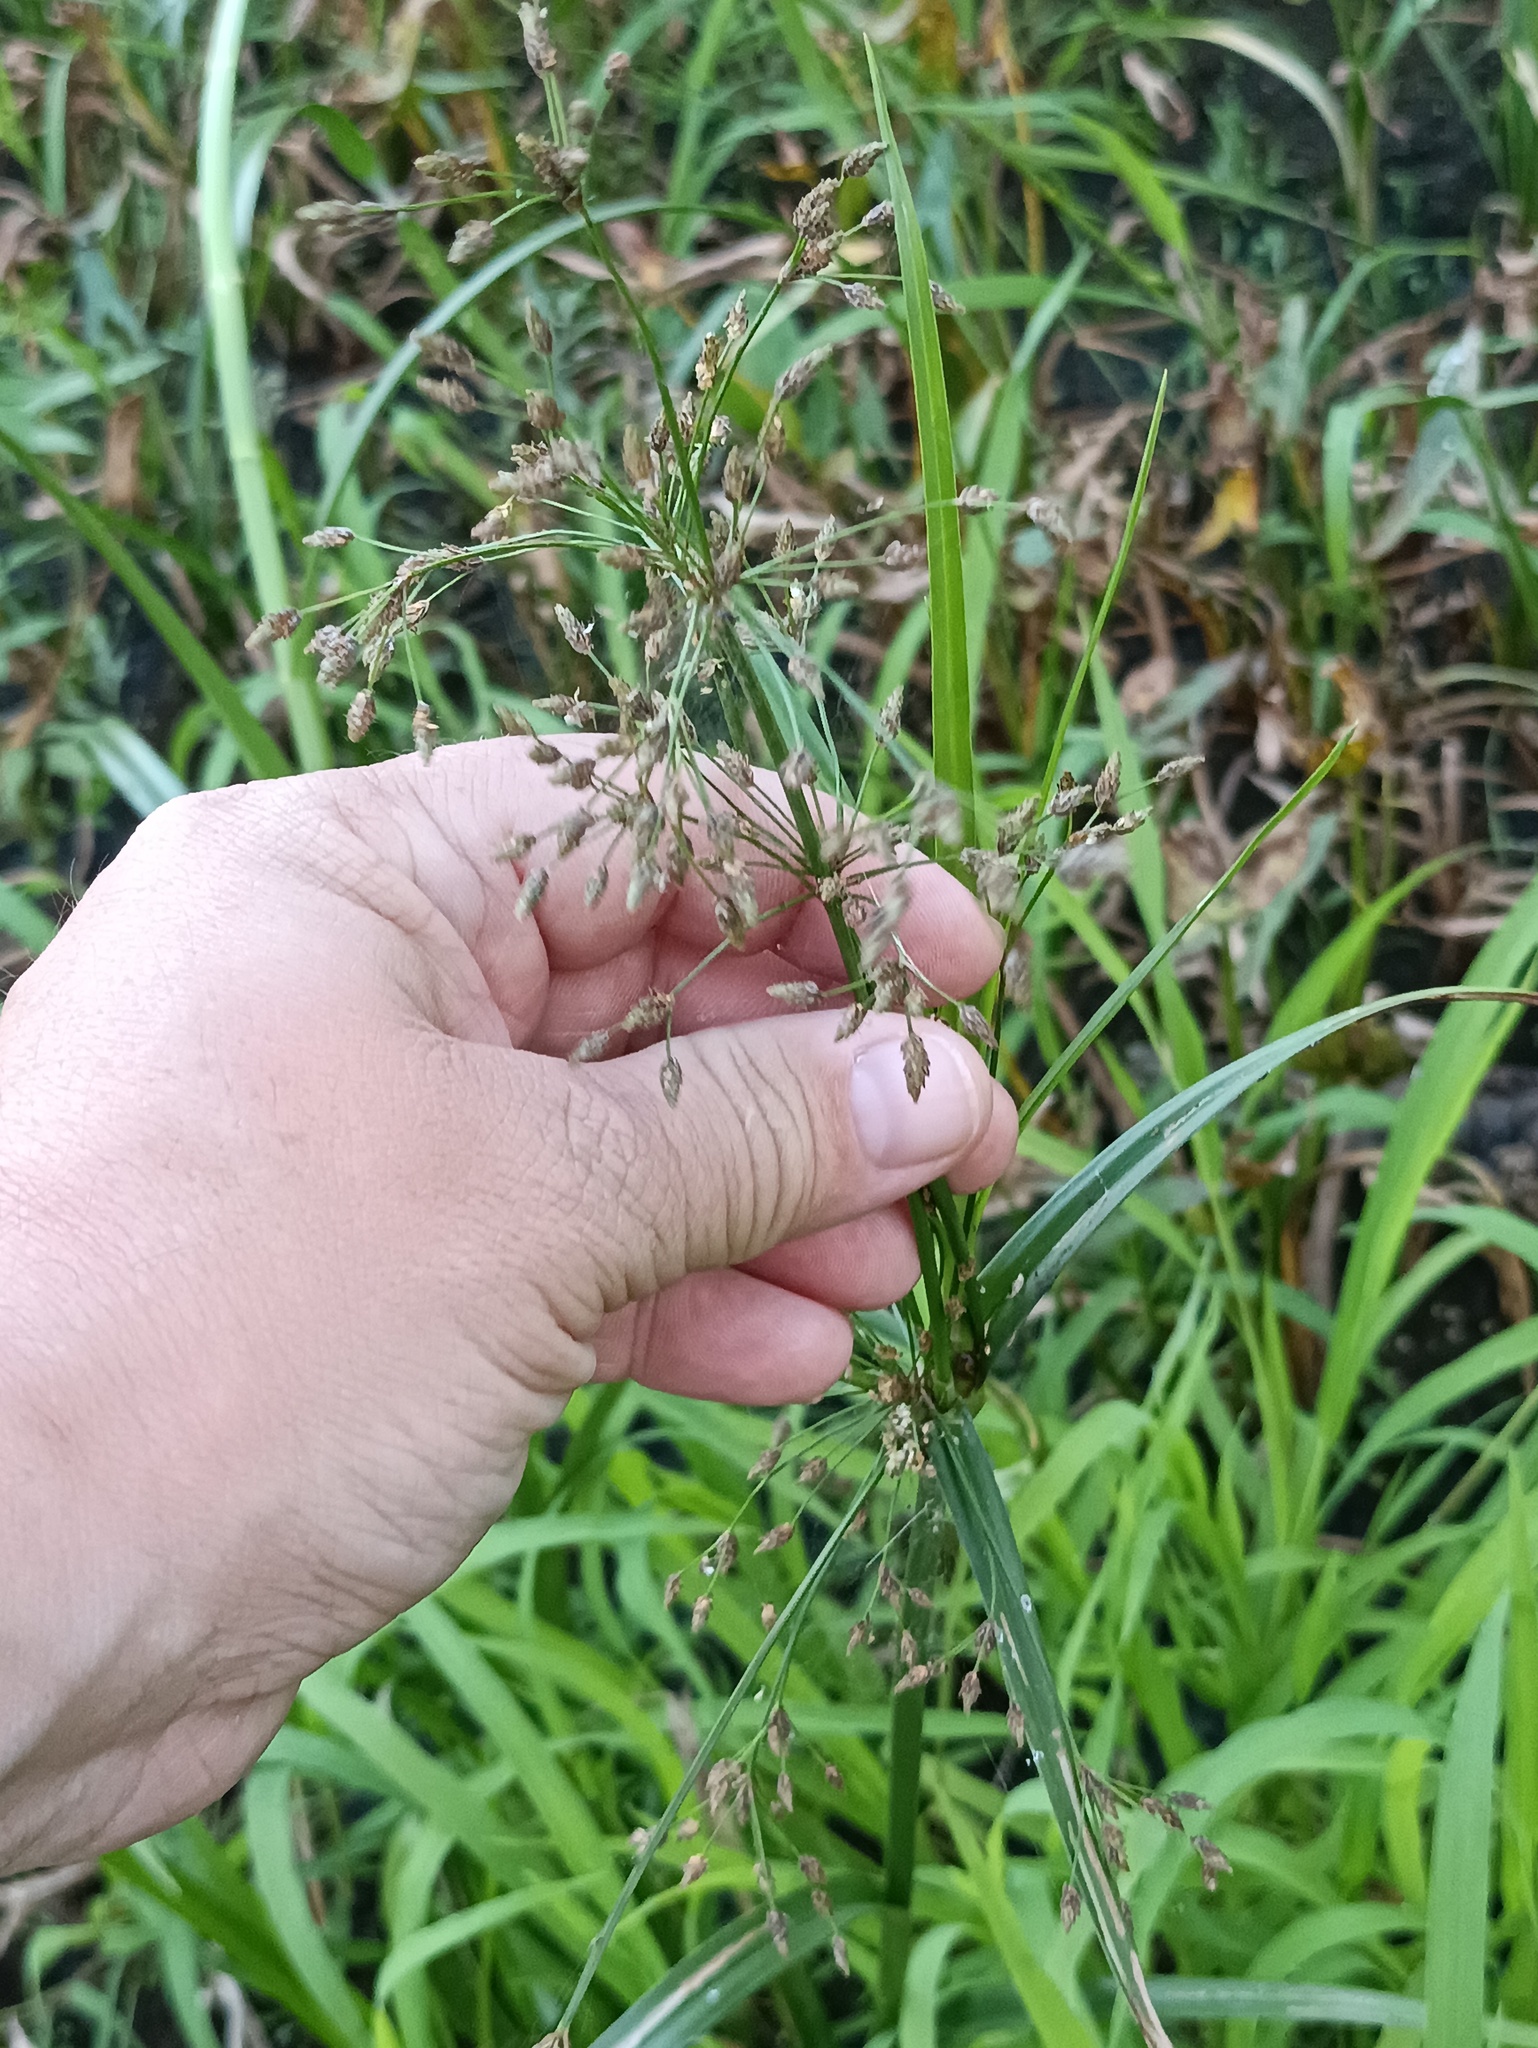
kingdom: Plantae
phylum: Tracheophyta
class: Liliopsida
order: Poales
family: Cyperaceae
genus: Scirpus
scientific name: Scirpus sylvaticus
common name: Wood club-rush
